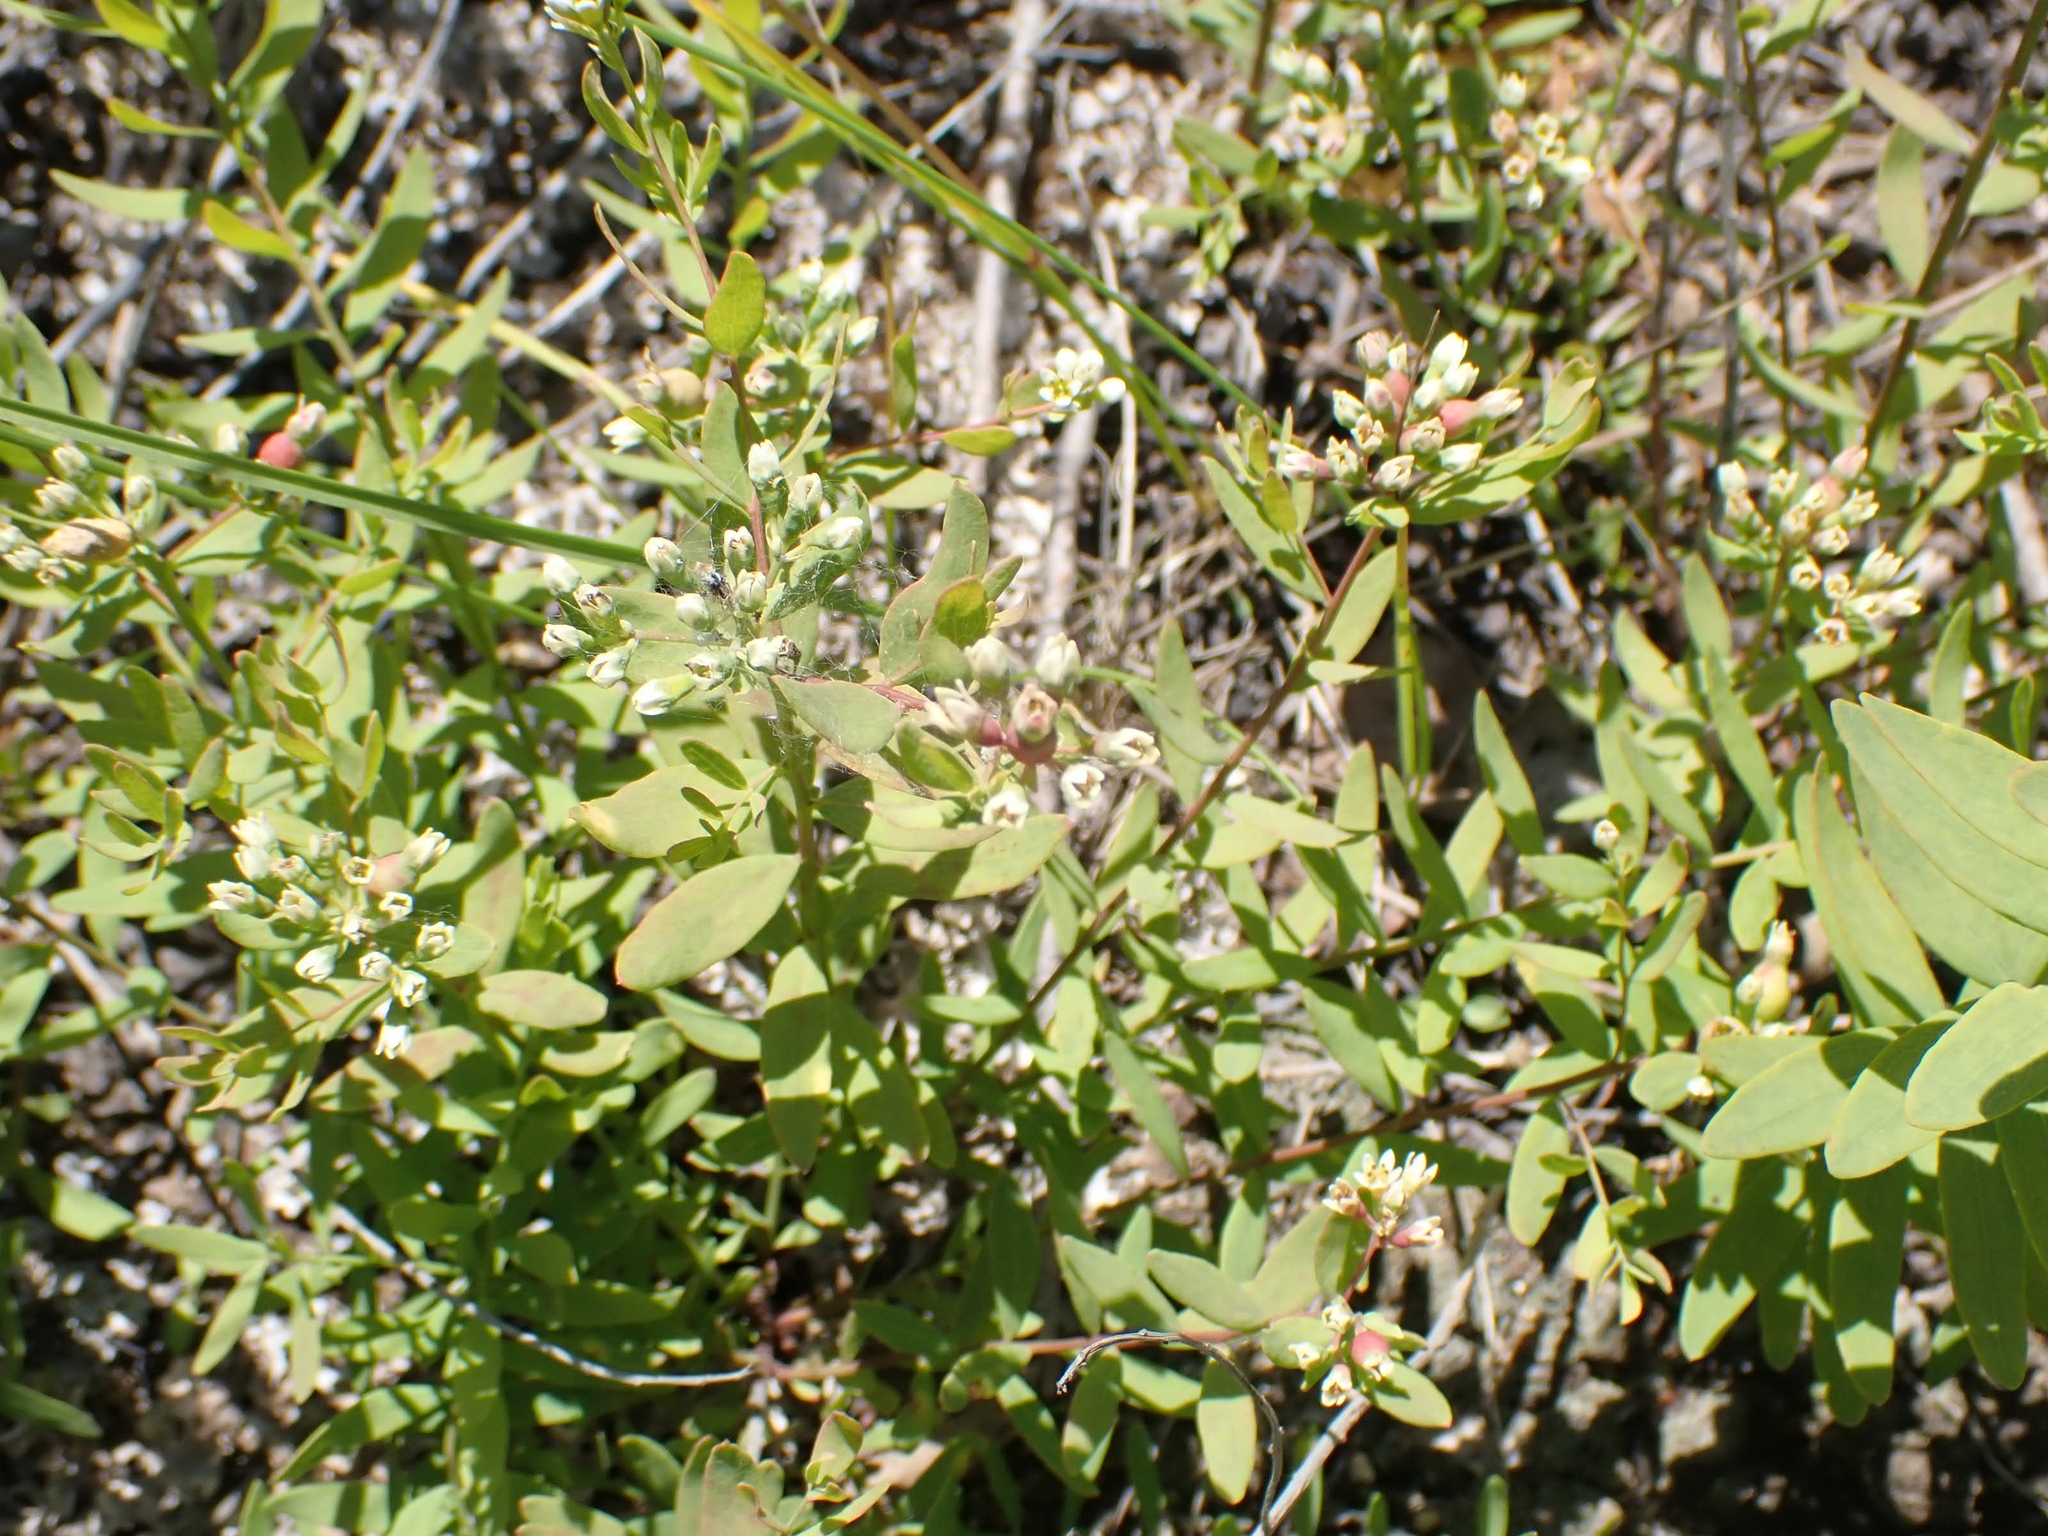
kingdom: Plantae
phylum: Tracheophyta
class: Magnoliopsida
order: Santalales
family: Comandraceae
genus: Comandra
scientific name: Comandra umbellata
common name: Bastard toadflax
